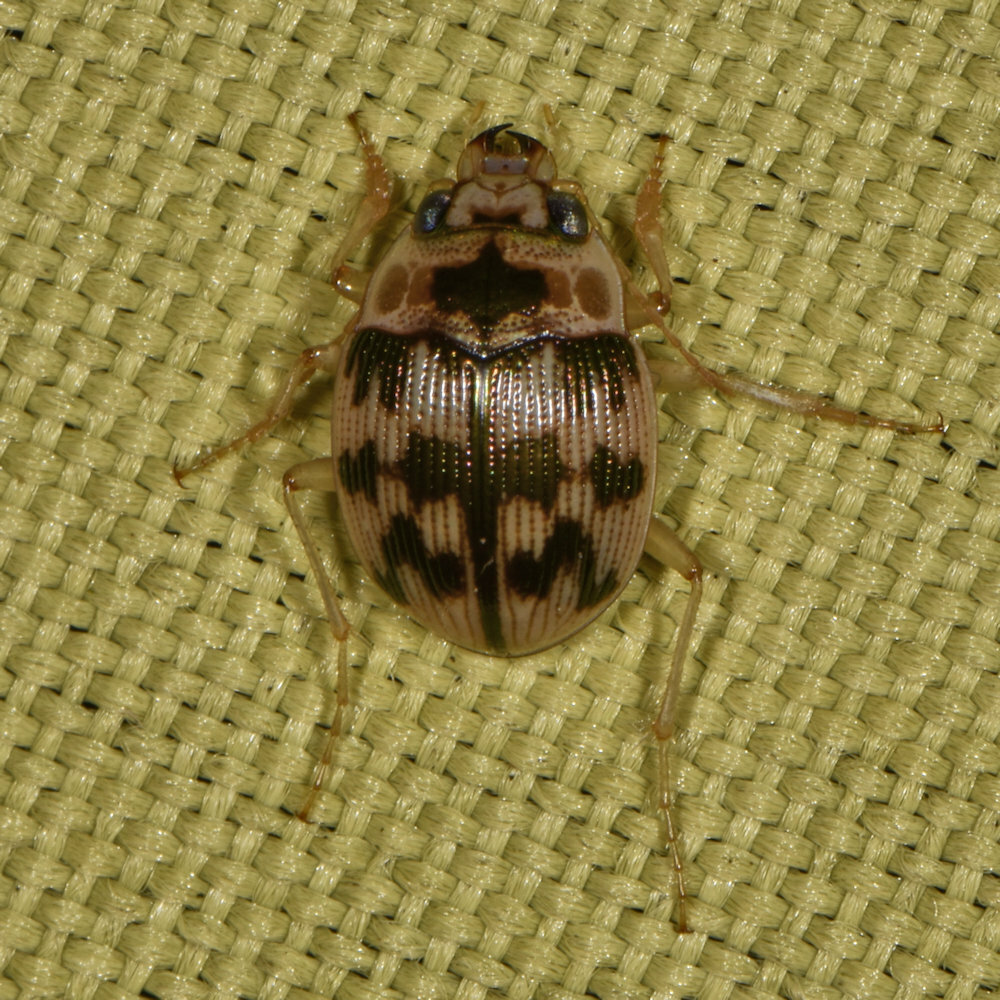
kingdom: Animalia
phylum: Arthropoda
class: Insecta
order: Coleoptera
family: Carabidae
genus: Omophron
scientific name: Omophron tessellatum
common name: Mosaic round sand beetle
